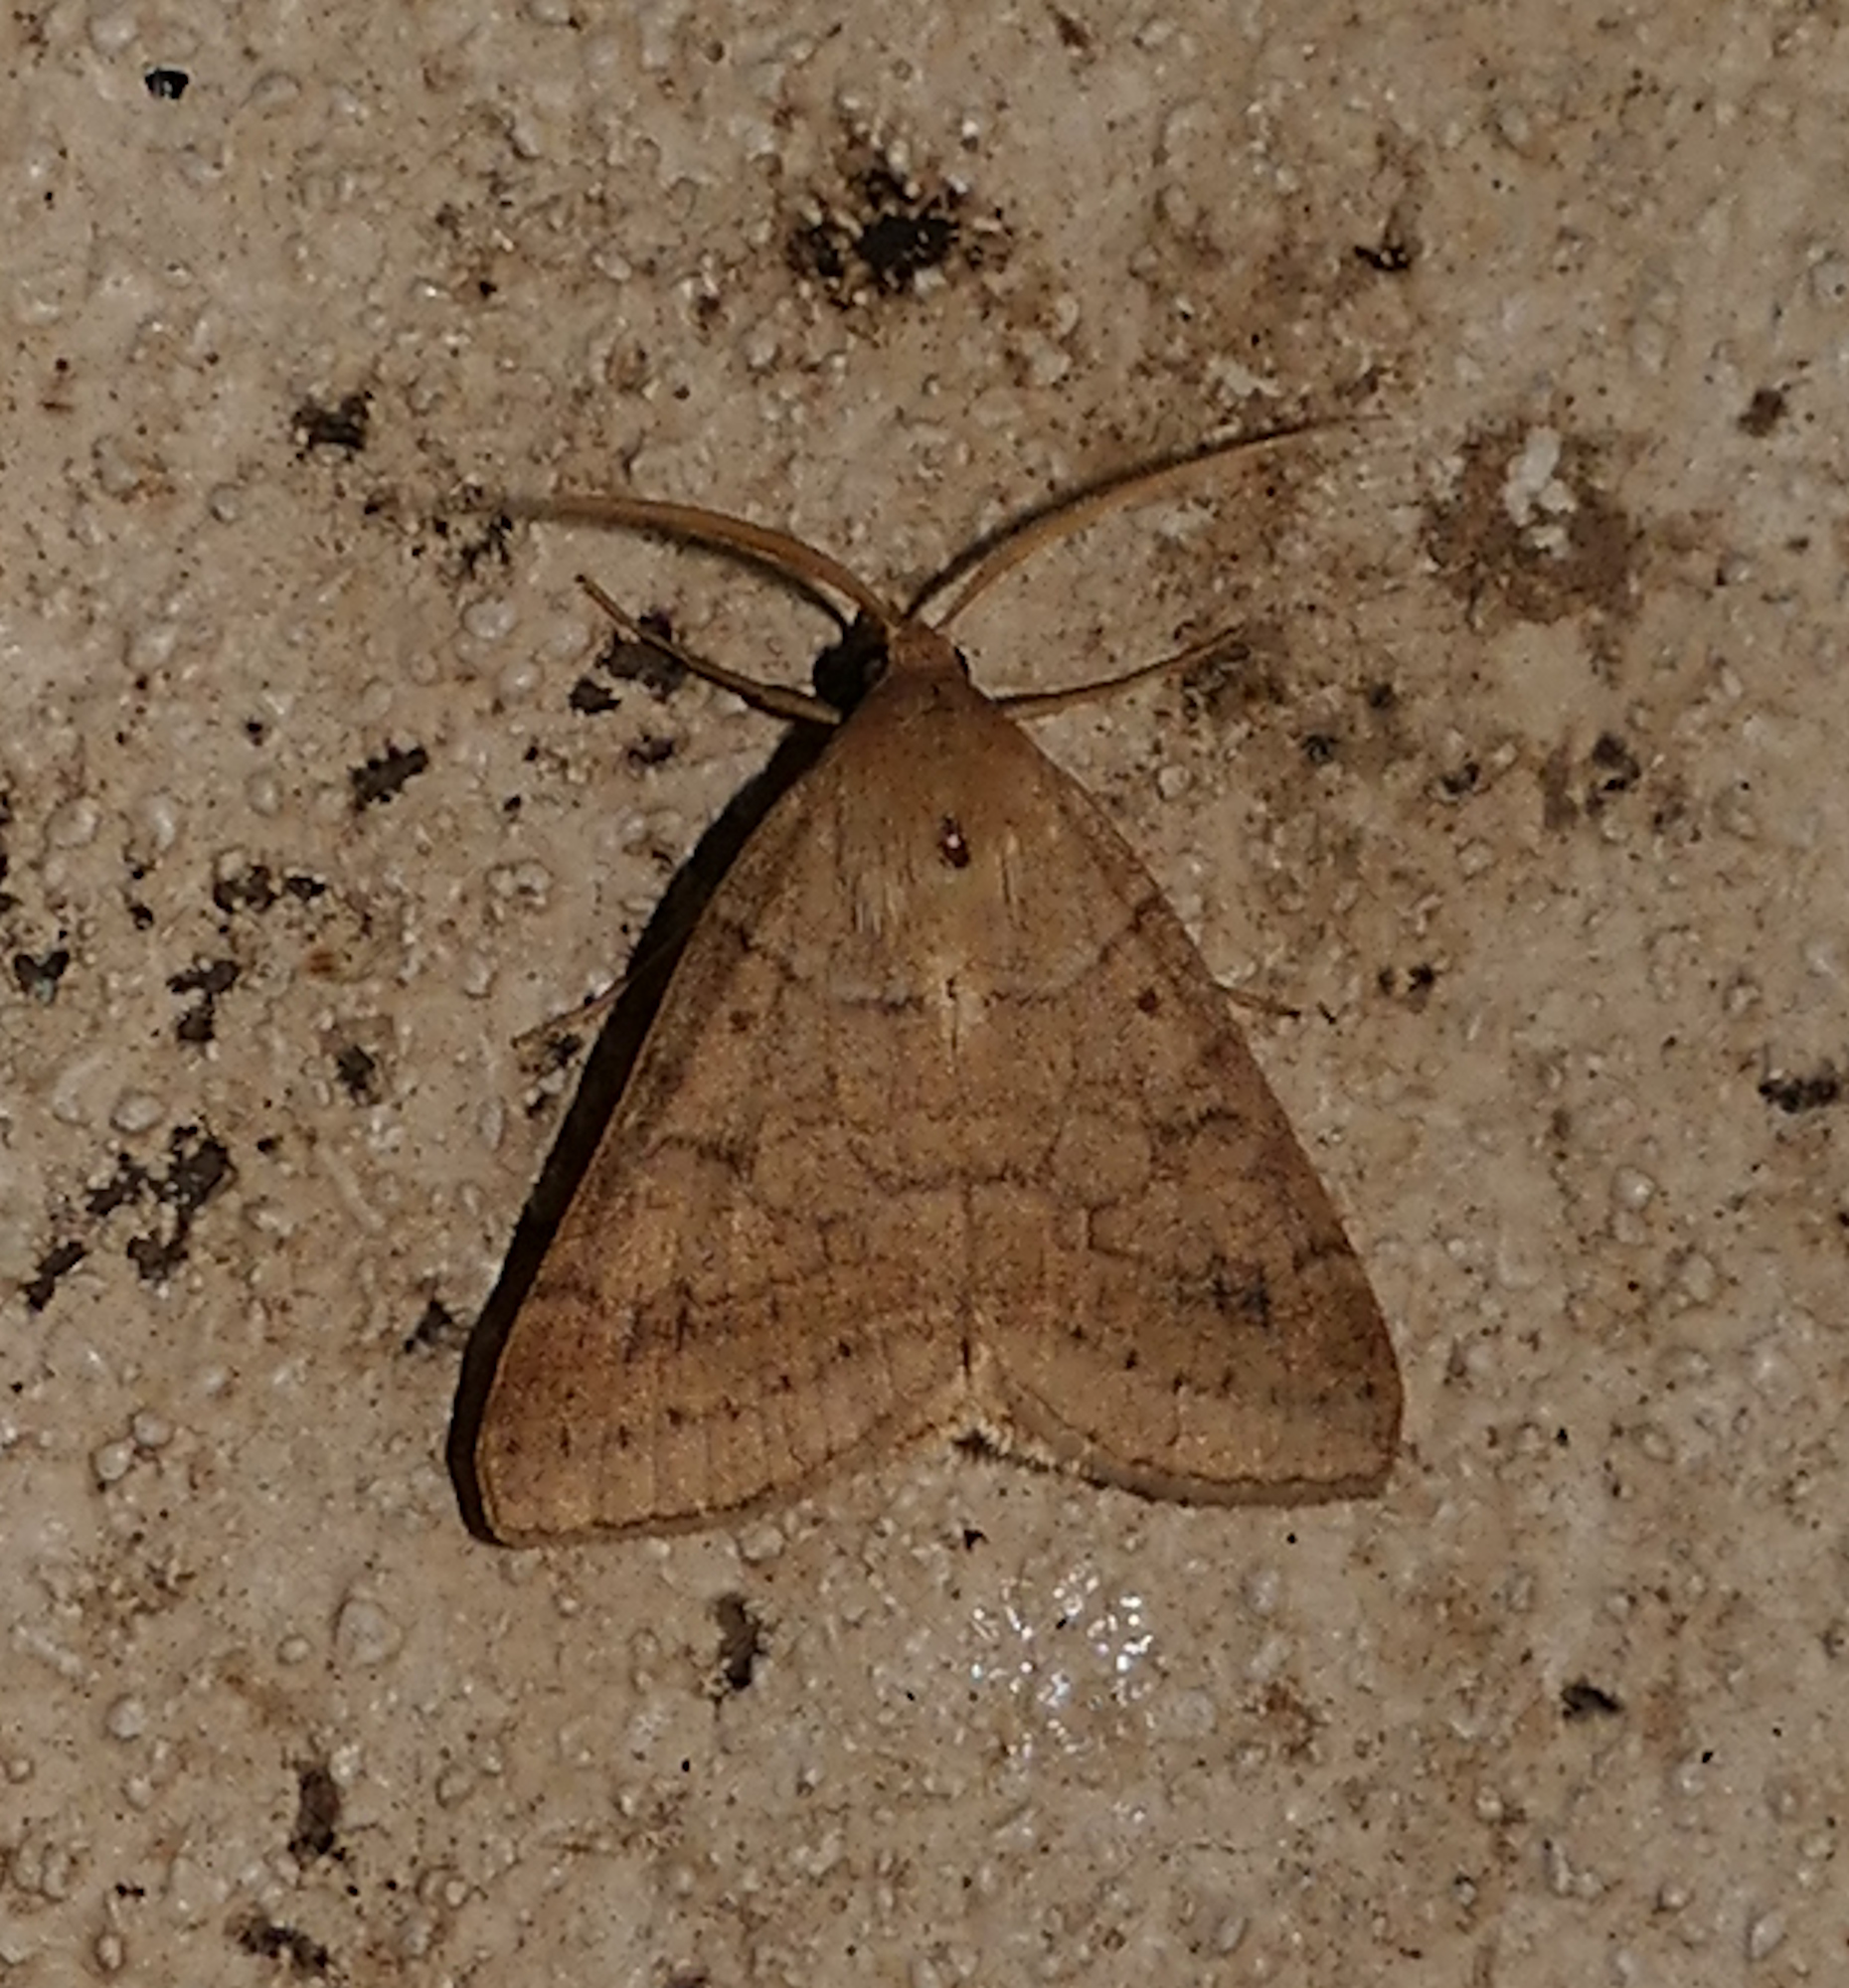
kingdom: Animalia
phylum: Arthropoda
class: Insecta
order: Lepidoptera
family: Erebidae
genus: Caenurgia
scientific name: Caenurgia chloropha
